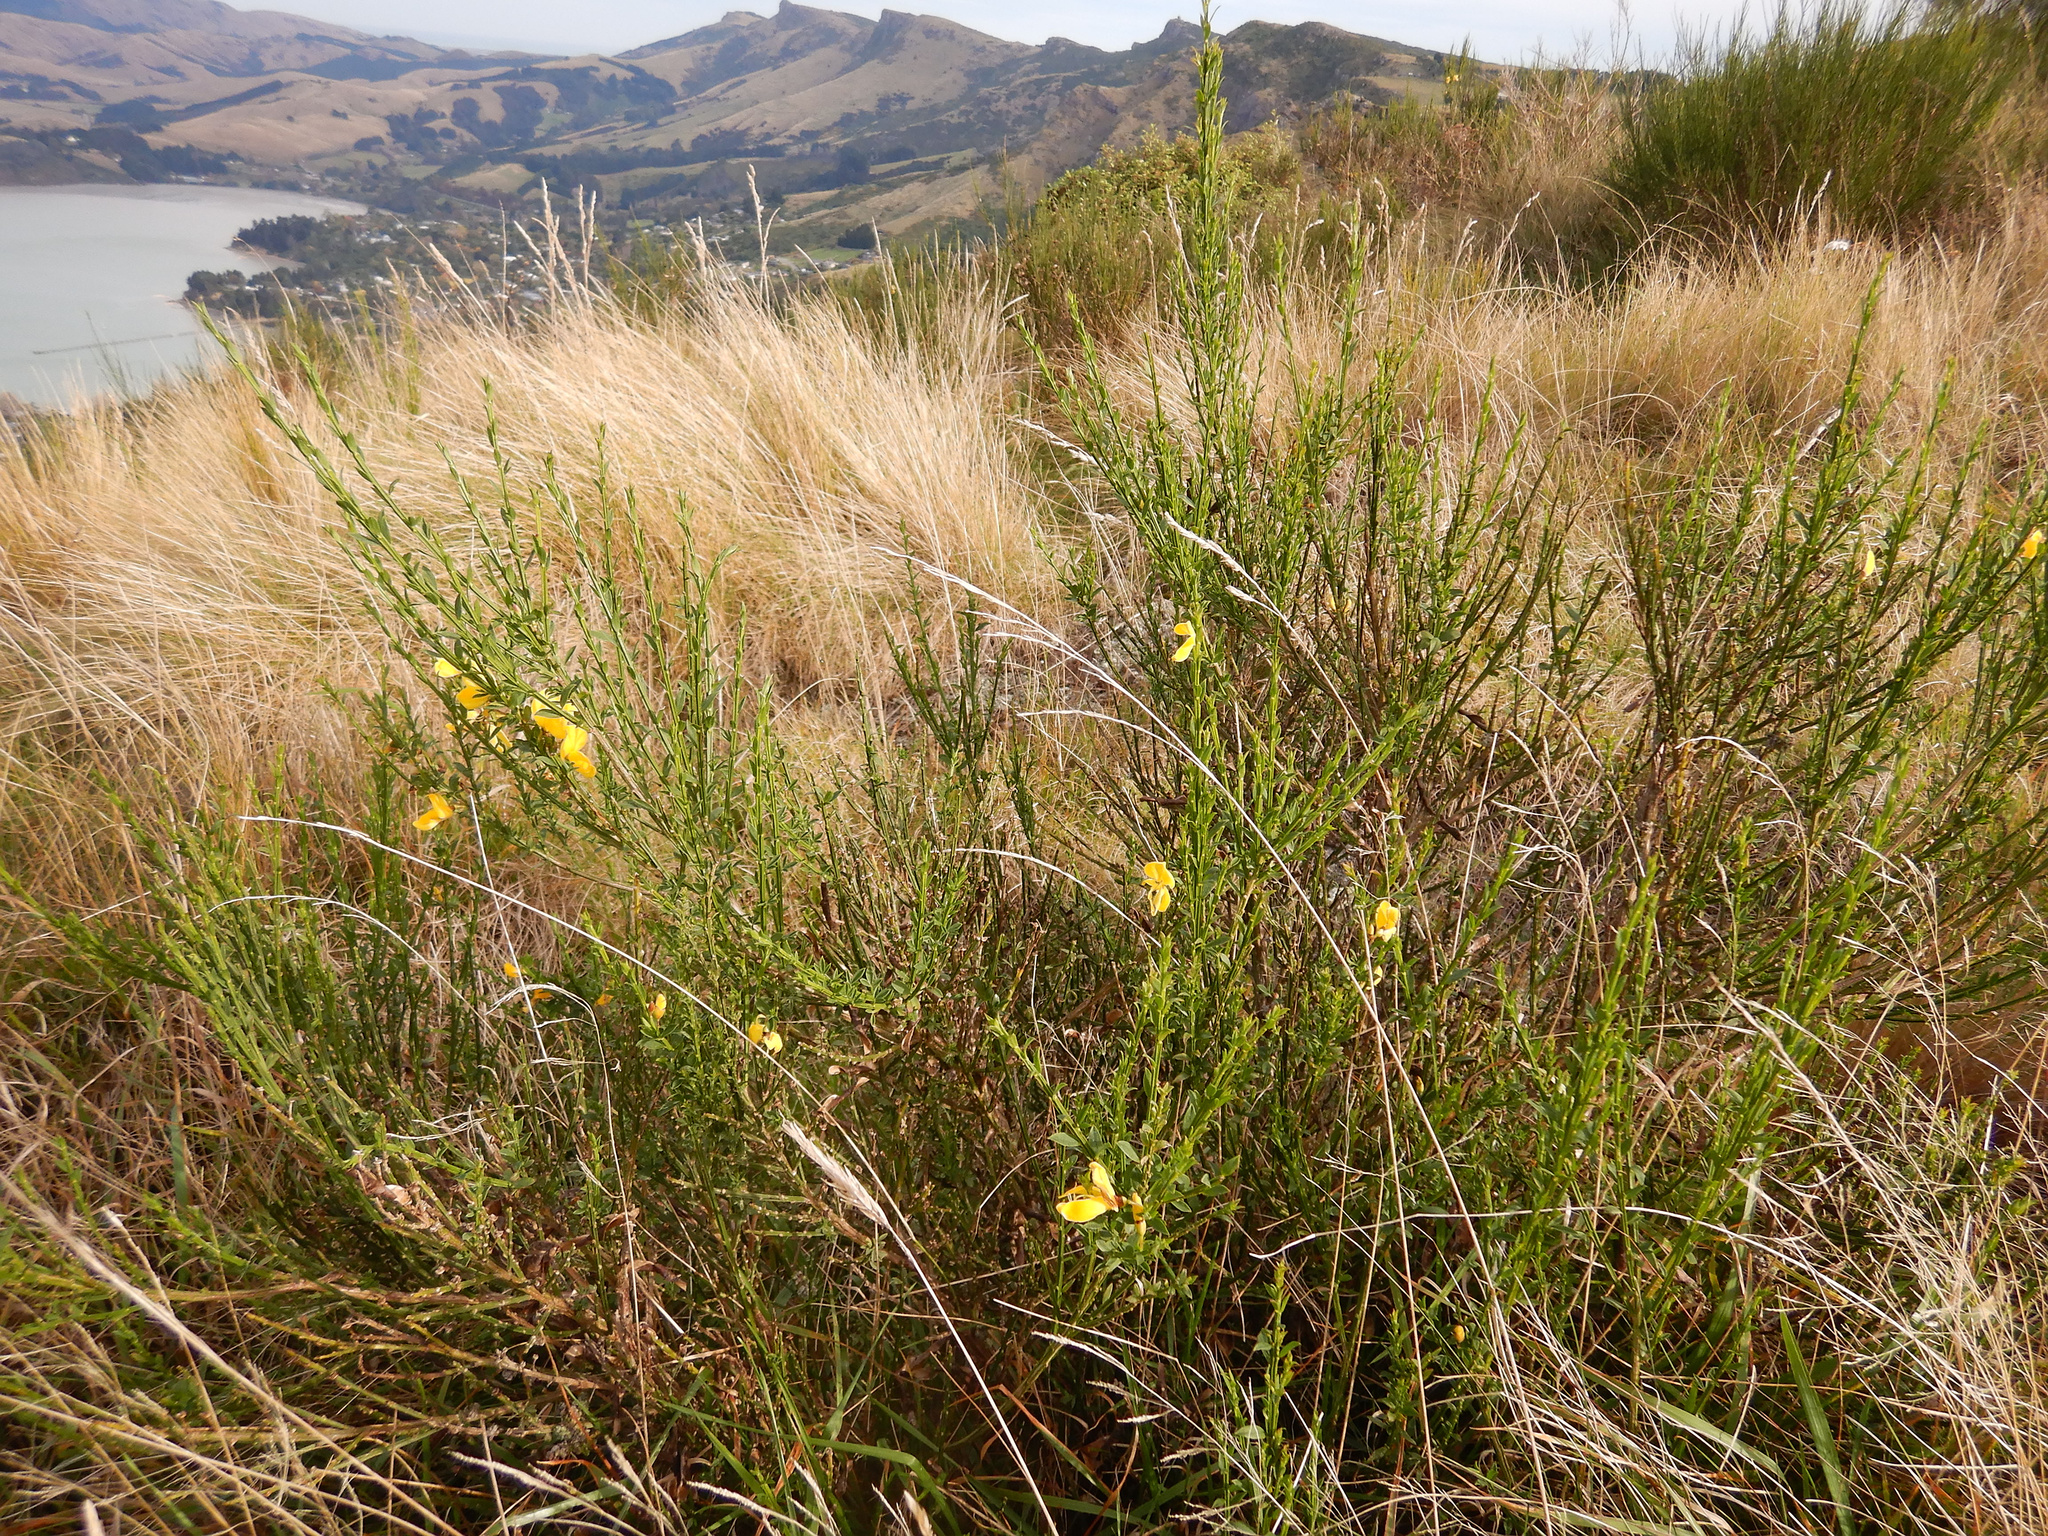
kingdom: Plantae
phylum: Tracheophyta
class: Magnoliopsida
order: Fabales
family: Fabaceae
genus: Cytisus
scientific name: Cytisus scoparius
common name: Scotch broom
